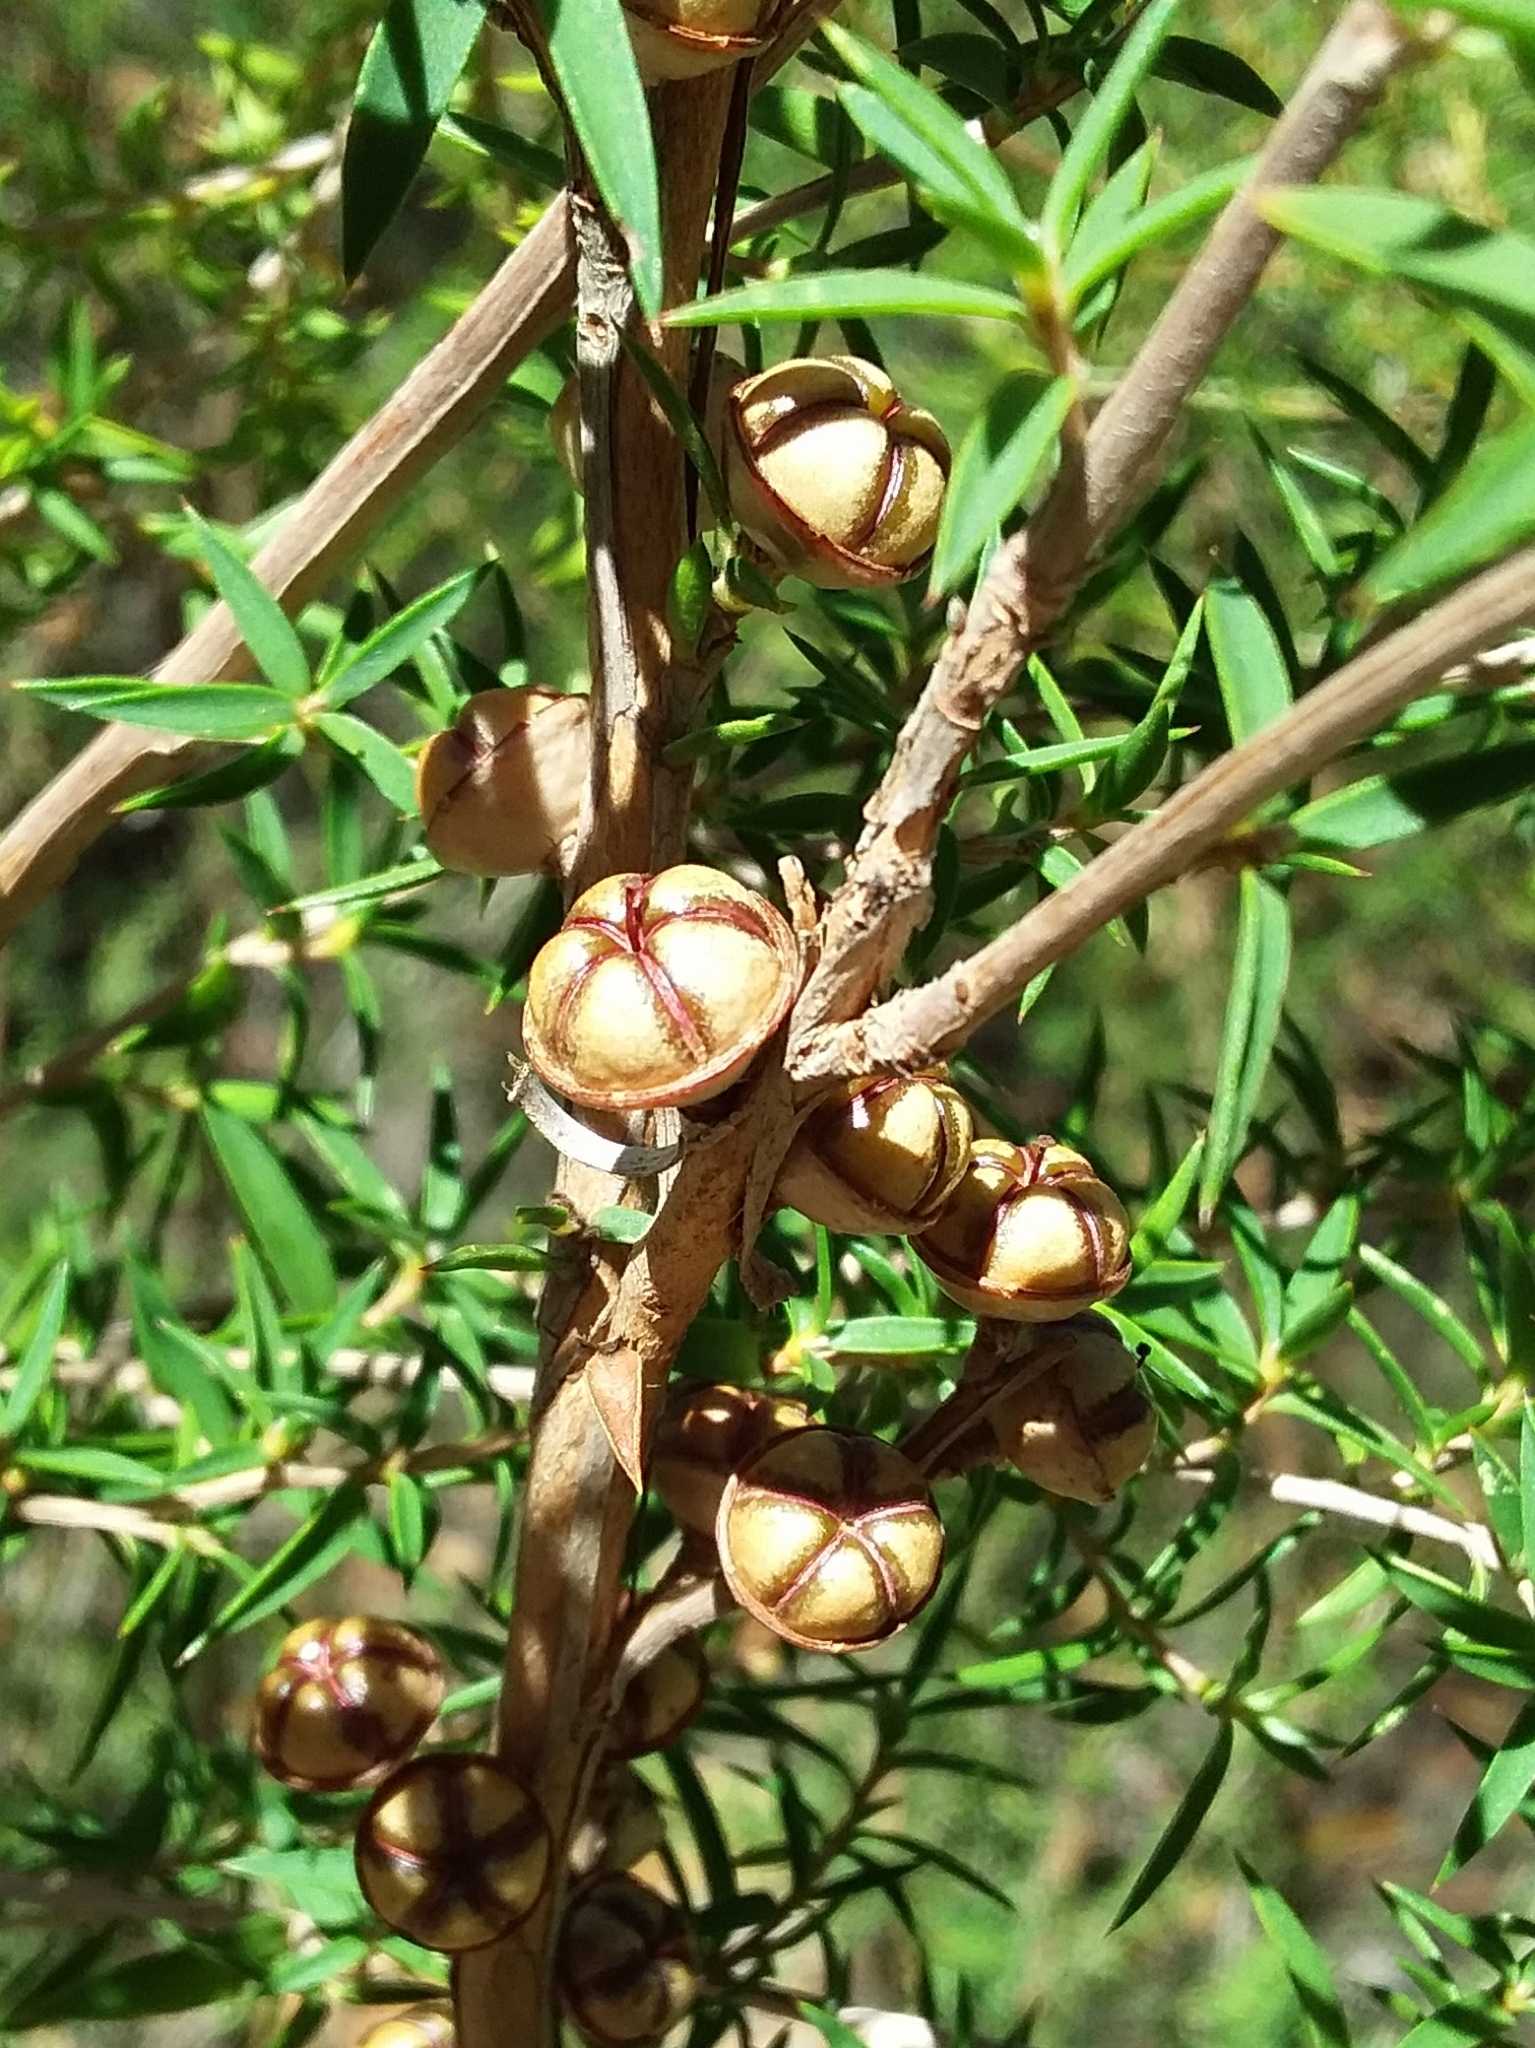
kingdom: Plantae
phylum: Tracheophyta
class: Magnoliopsida
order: Myrtales
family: Myrtaceae
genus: Leptospermum
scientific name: Leptospermum continentale
